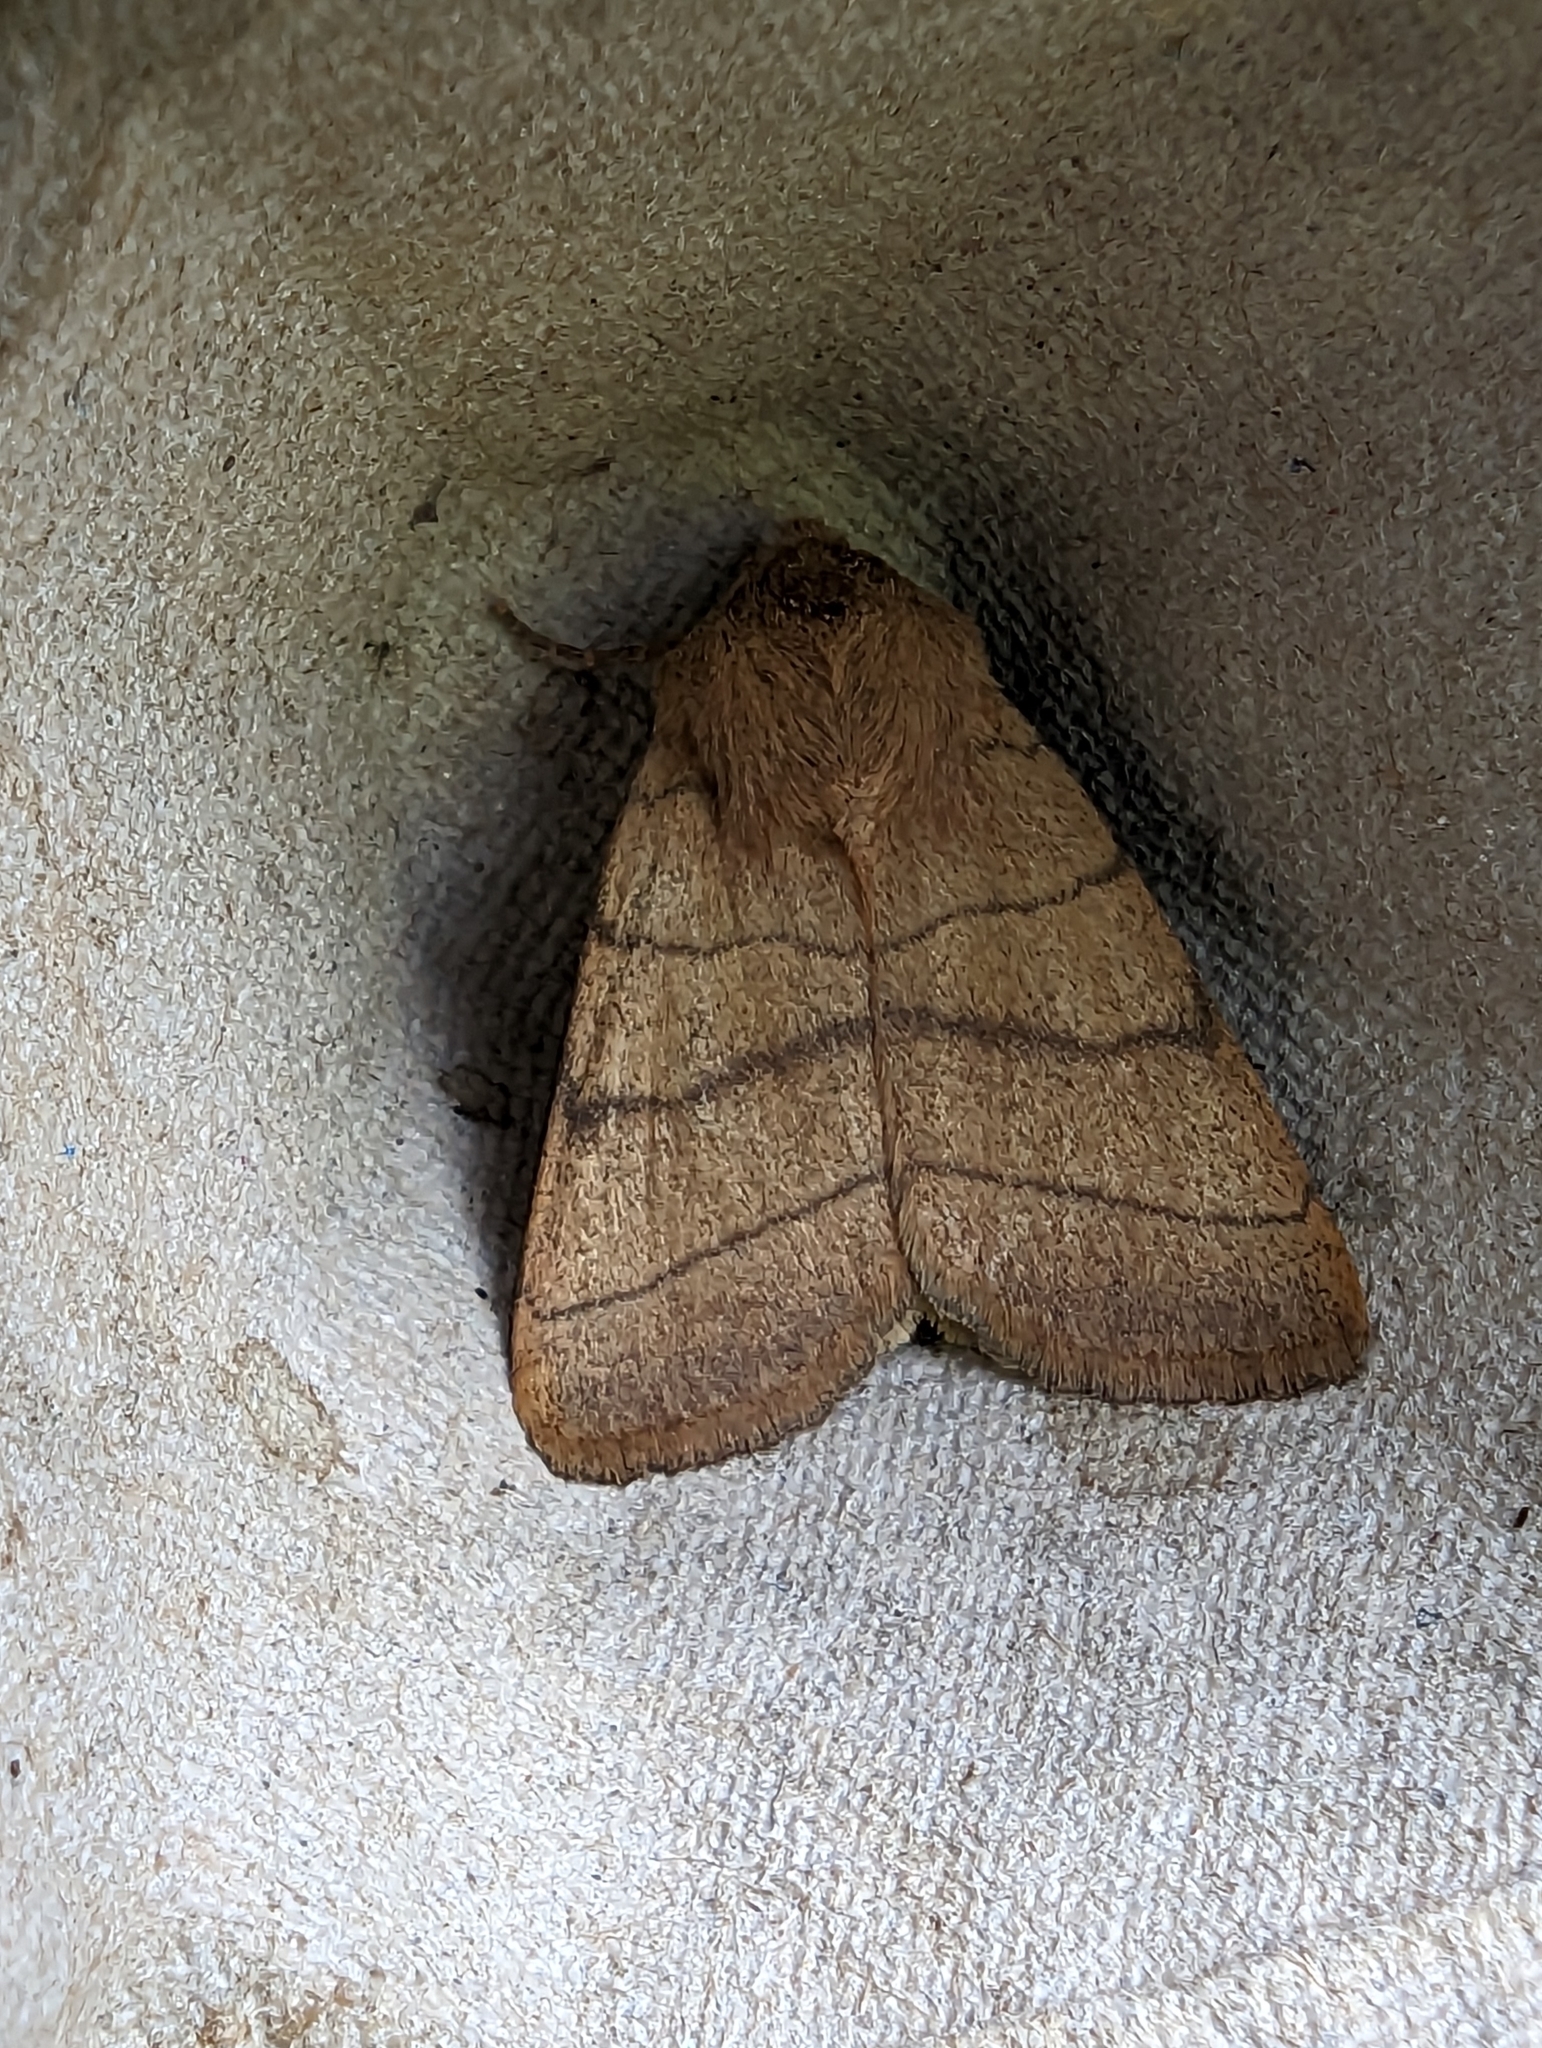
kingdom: Animalia
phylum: Arthropoda
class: Insecta
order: Lepidoptera
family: Noctuidae
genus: Charanyca
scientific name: Charanyca trigrammica
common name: Treble lines
